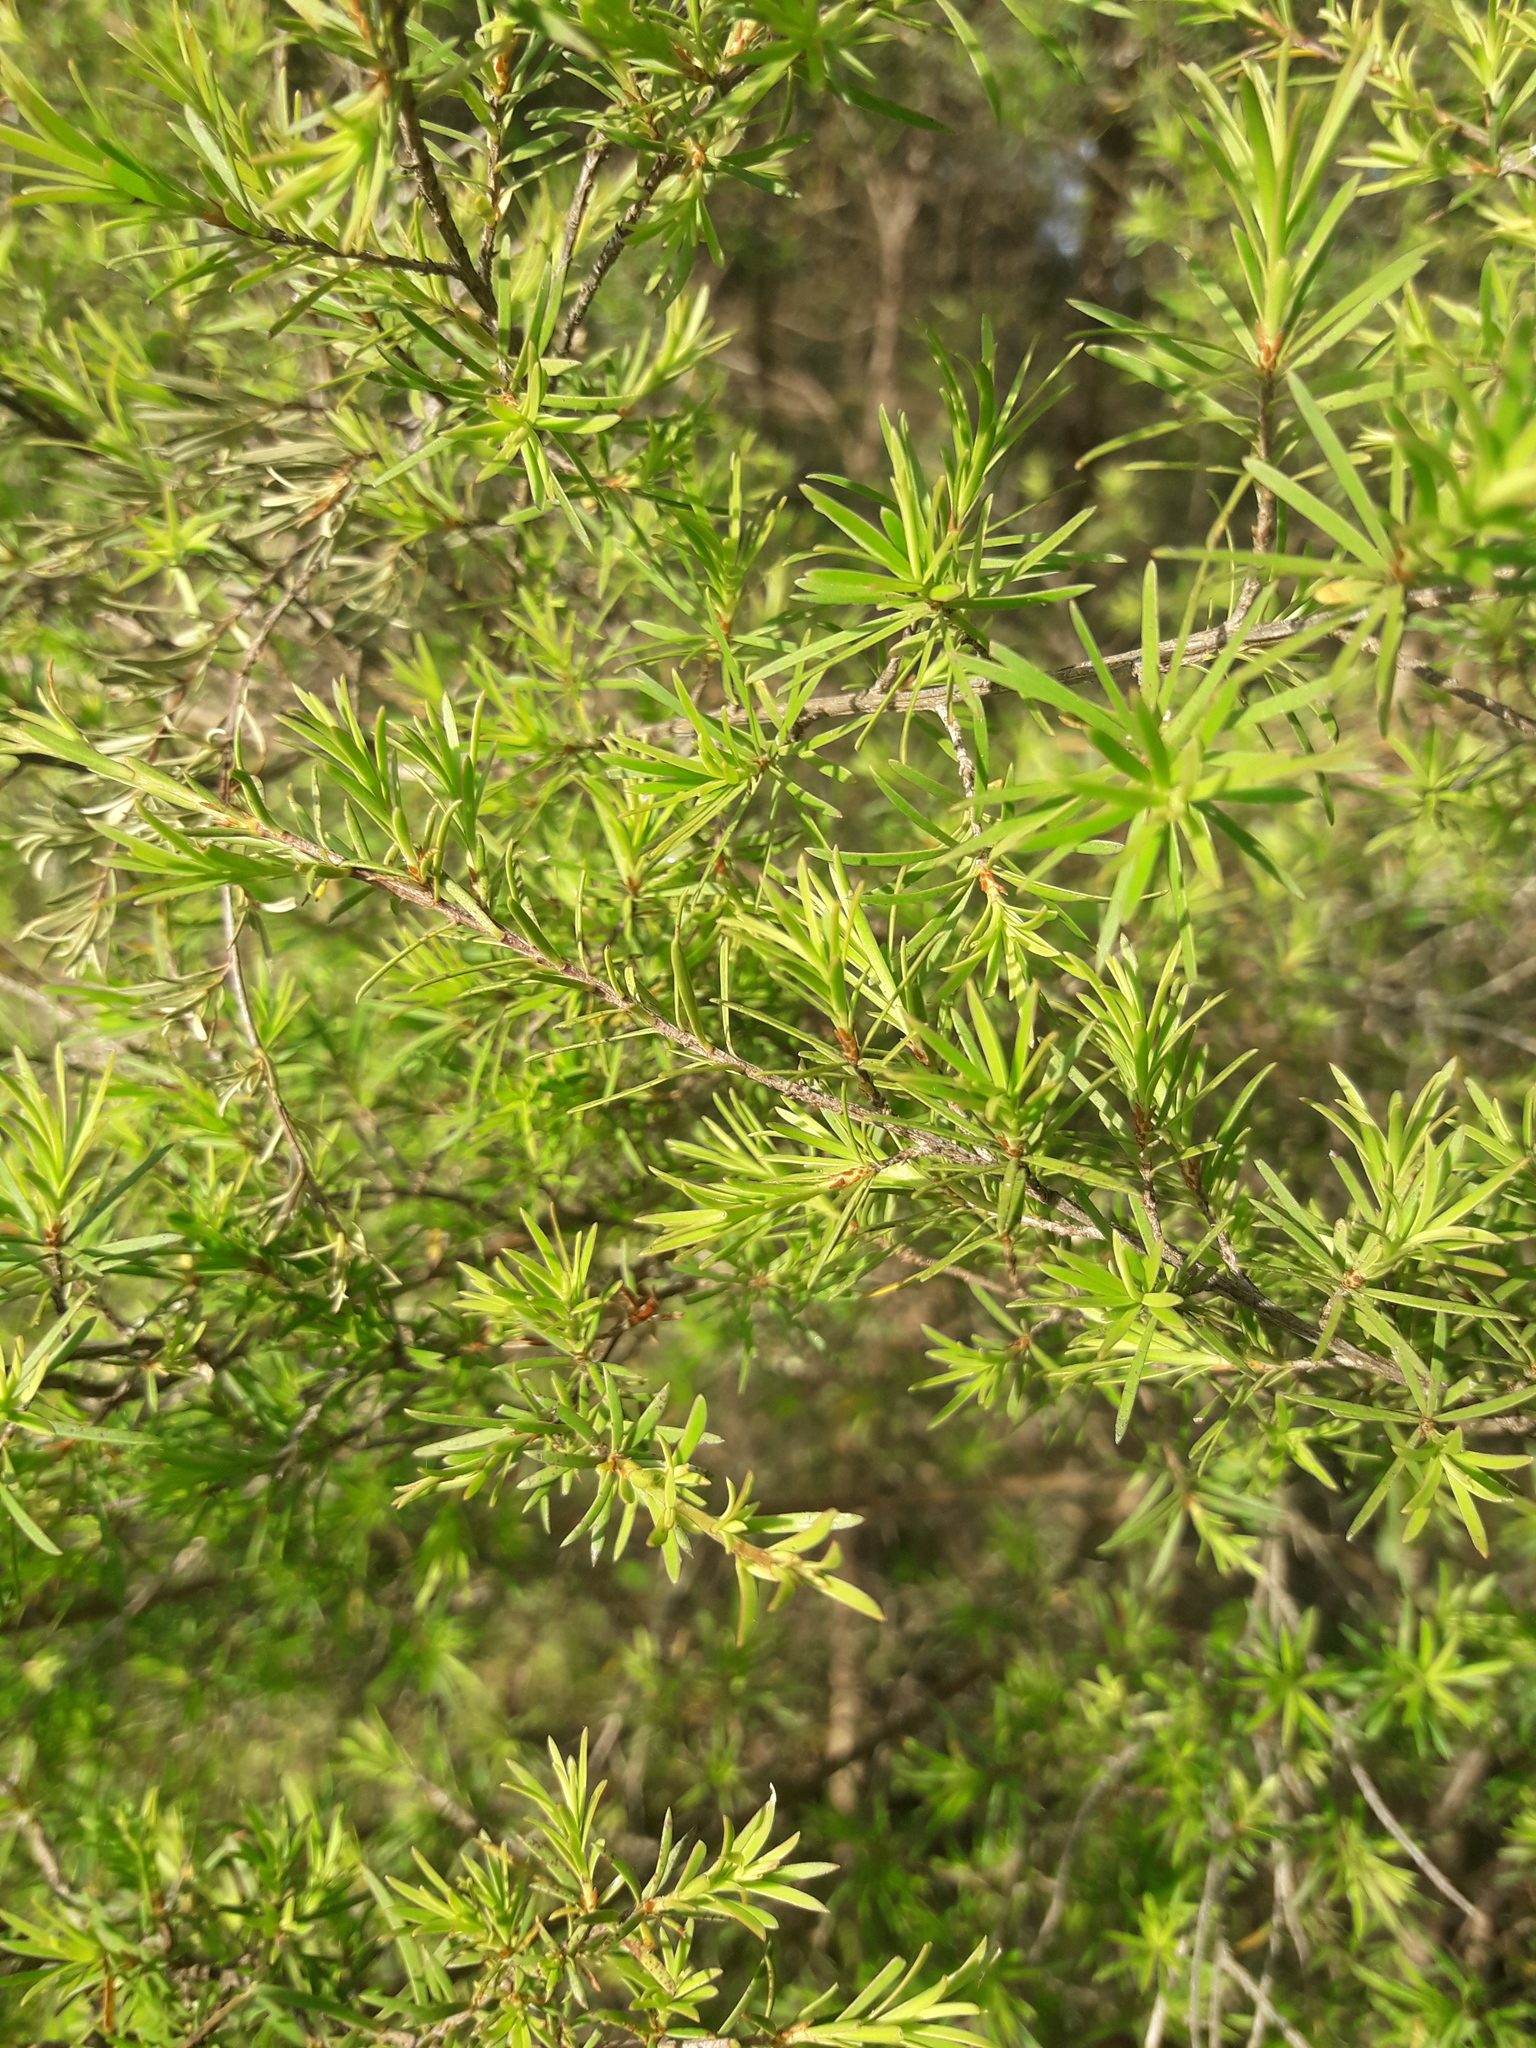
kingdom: Plantae
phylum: Tracheophyta
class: Magnoliopsida
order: Myrtales
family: Myrtaceae
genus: Kunzea
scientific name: Kunzea ericoides
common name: Burgan
